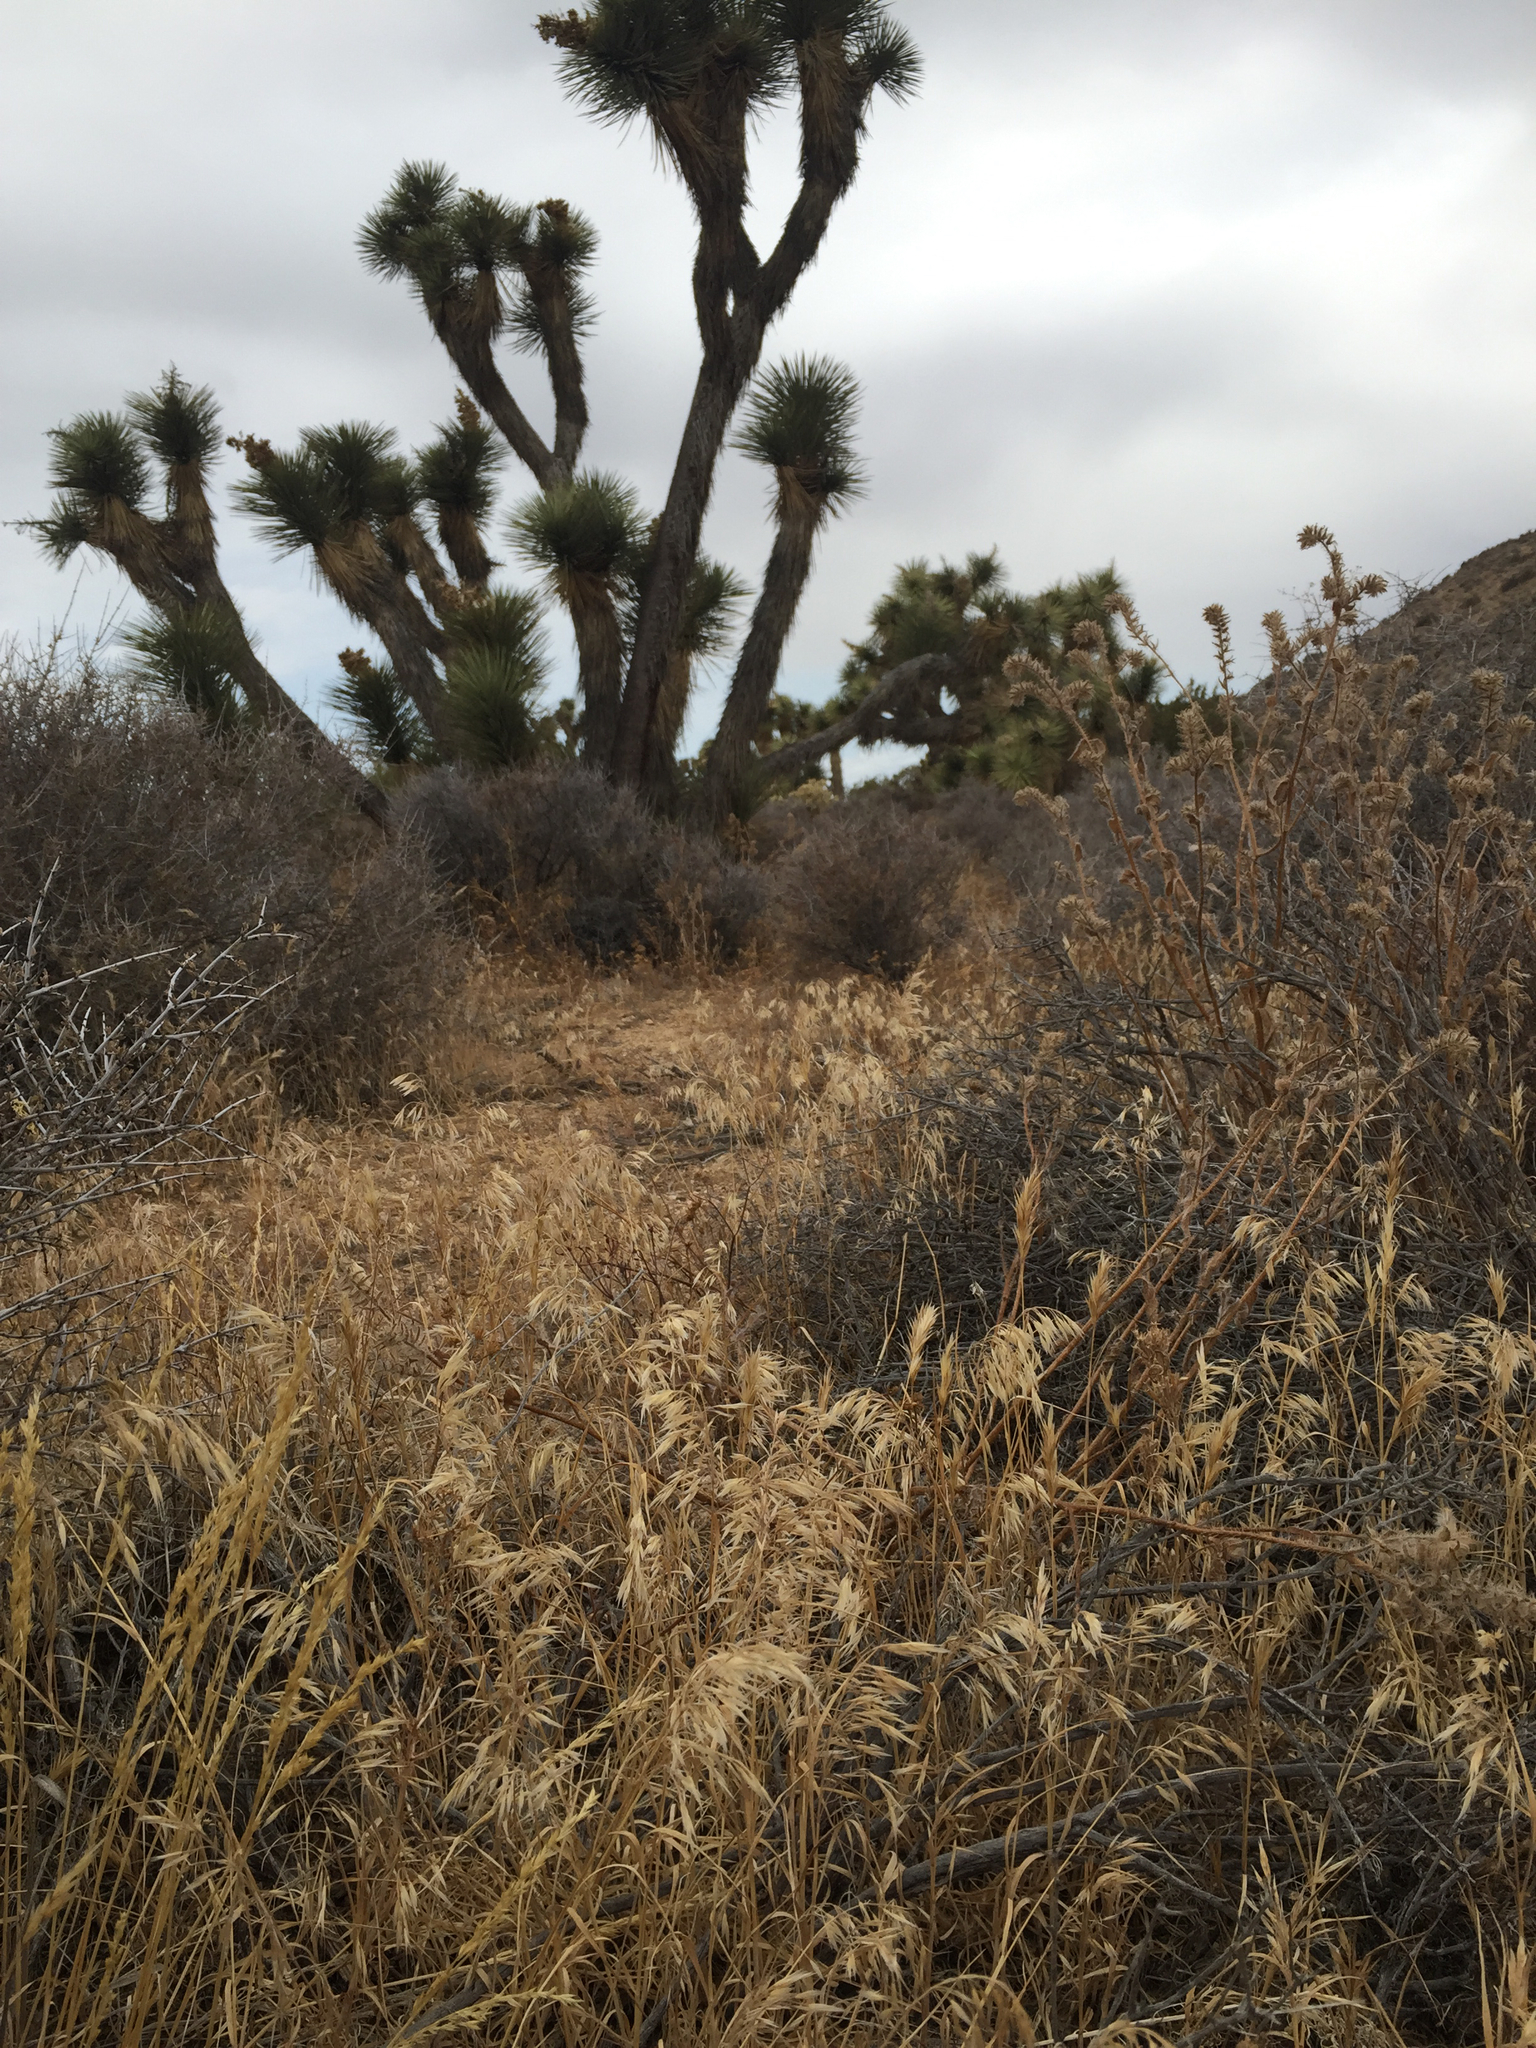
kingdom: Plantae
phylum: Tracheophyta
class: Liliopsida
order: Poales
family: Poaceae
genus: Bromus
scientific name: Bromus tectorum
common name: Cheatgrass
